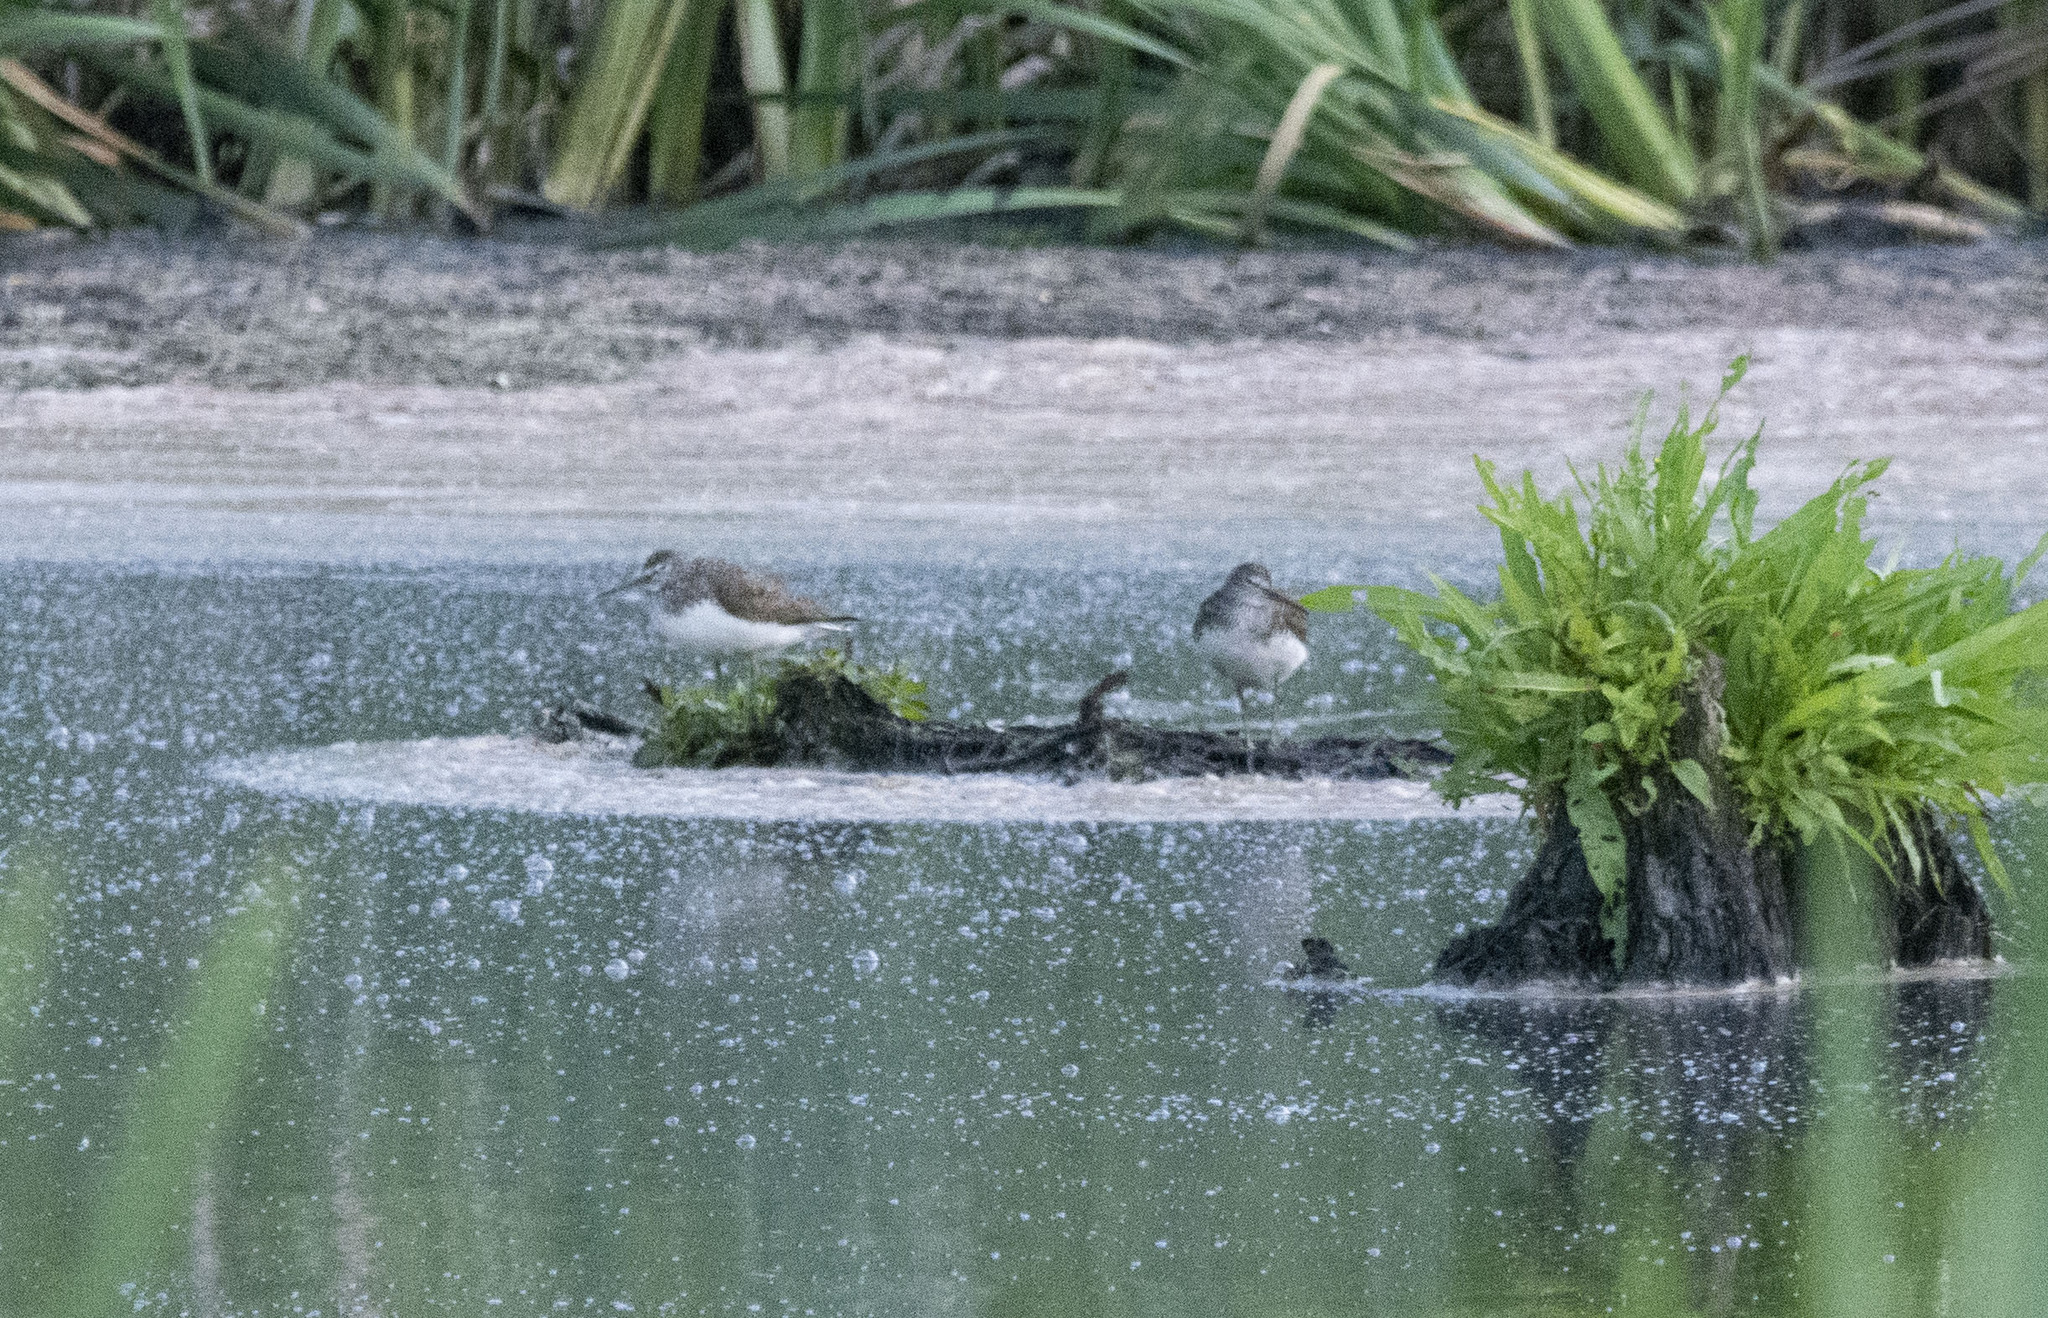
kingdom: Animalia
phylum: Chordata
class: Aves
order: Charadriiformes
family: Scolopacidae
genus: Tringa
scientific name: Tringa ochropus
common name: Green sandpiper
